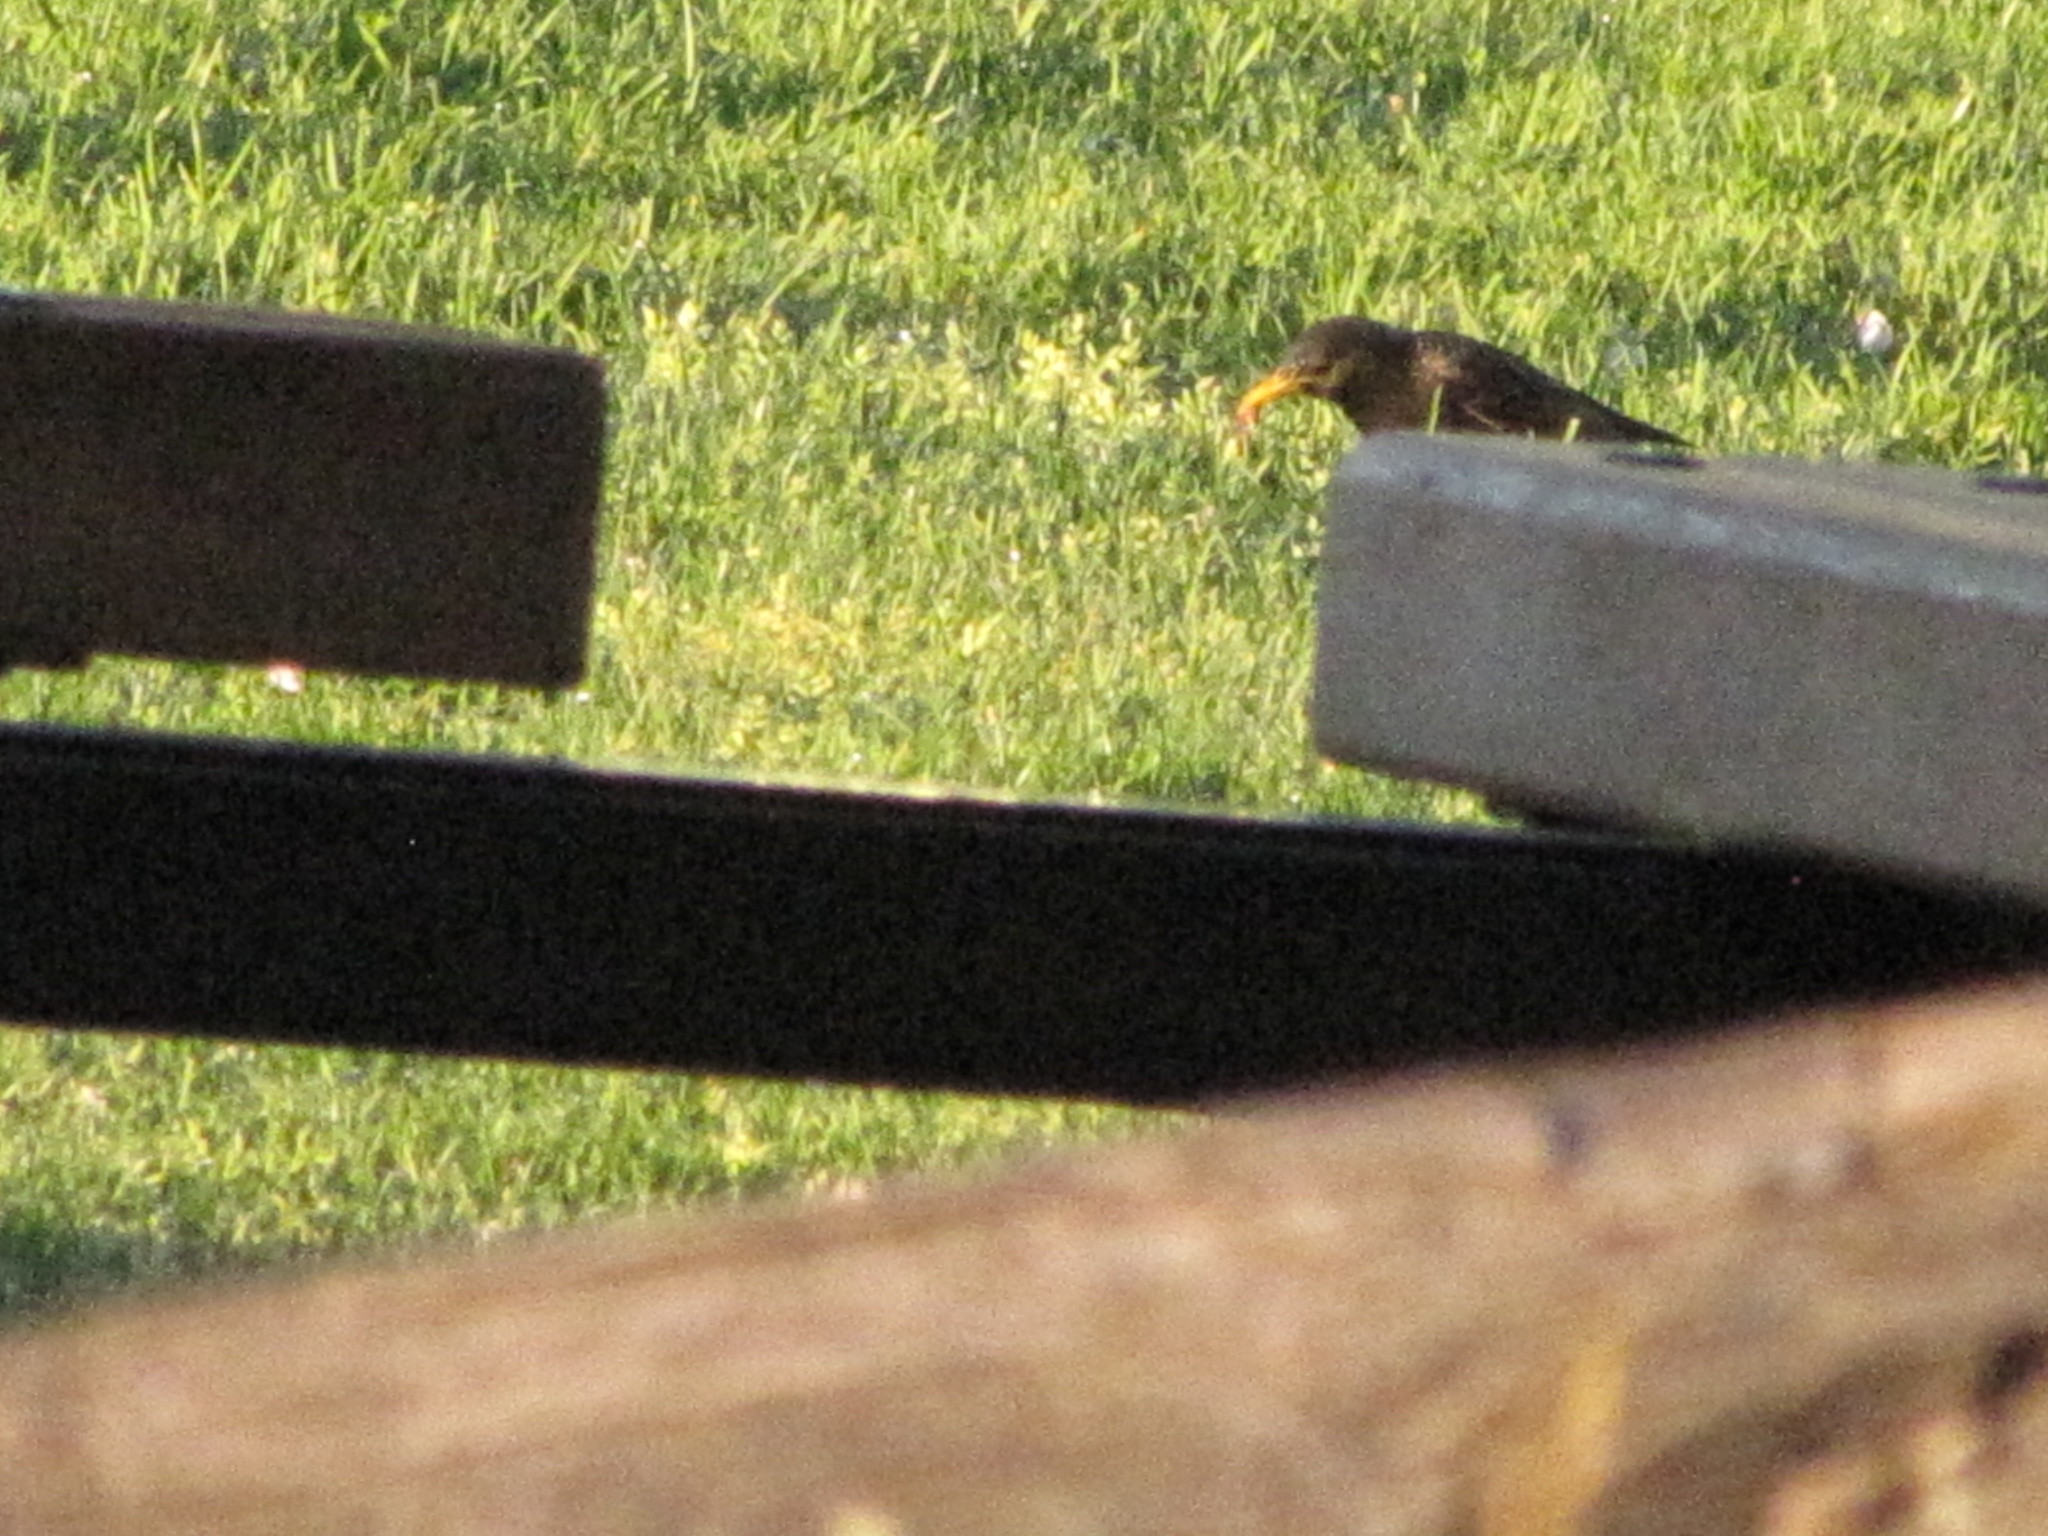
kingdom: Animalia
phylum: Chordata
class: Aves
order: Passeriformes
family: Sturnidae
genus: Sturnus
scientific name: Sturnus vulgaris
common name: Common starling
